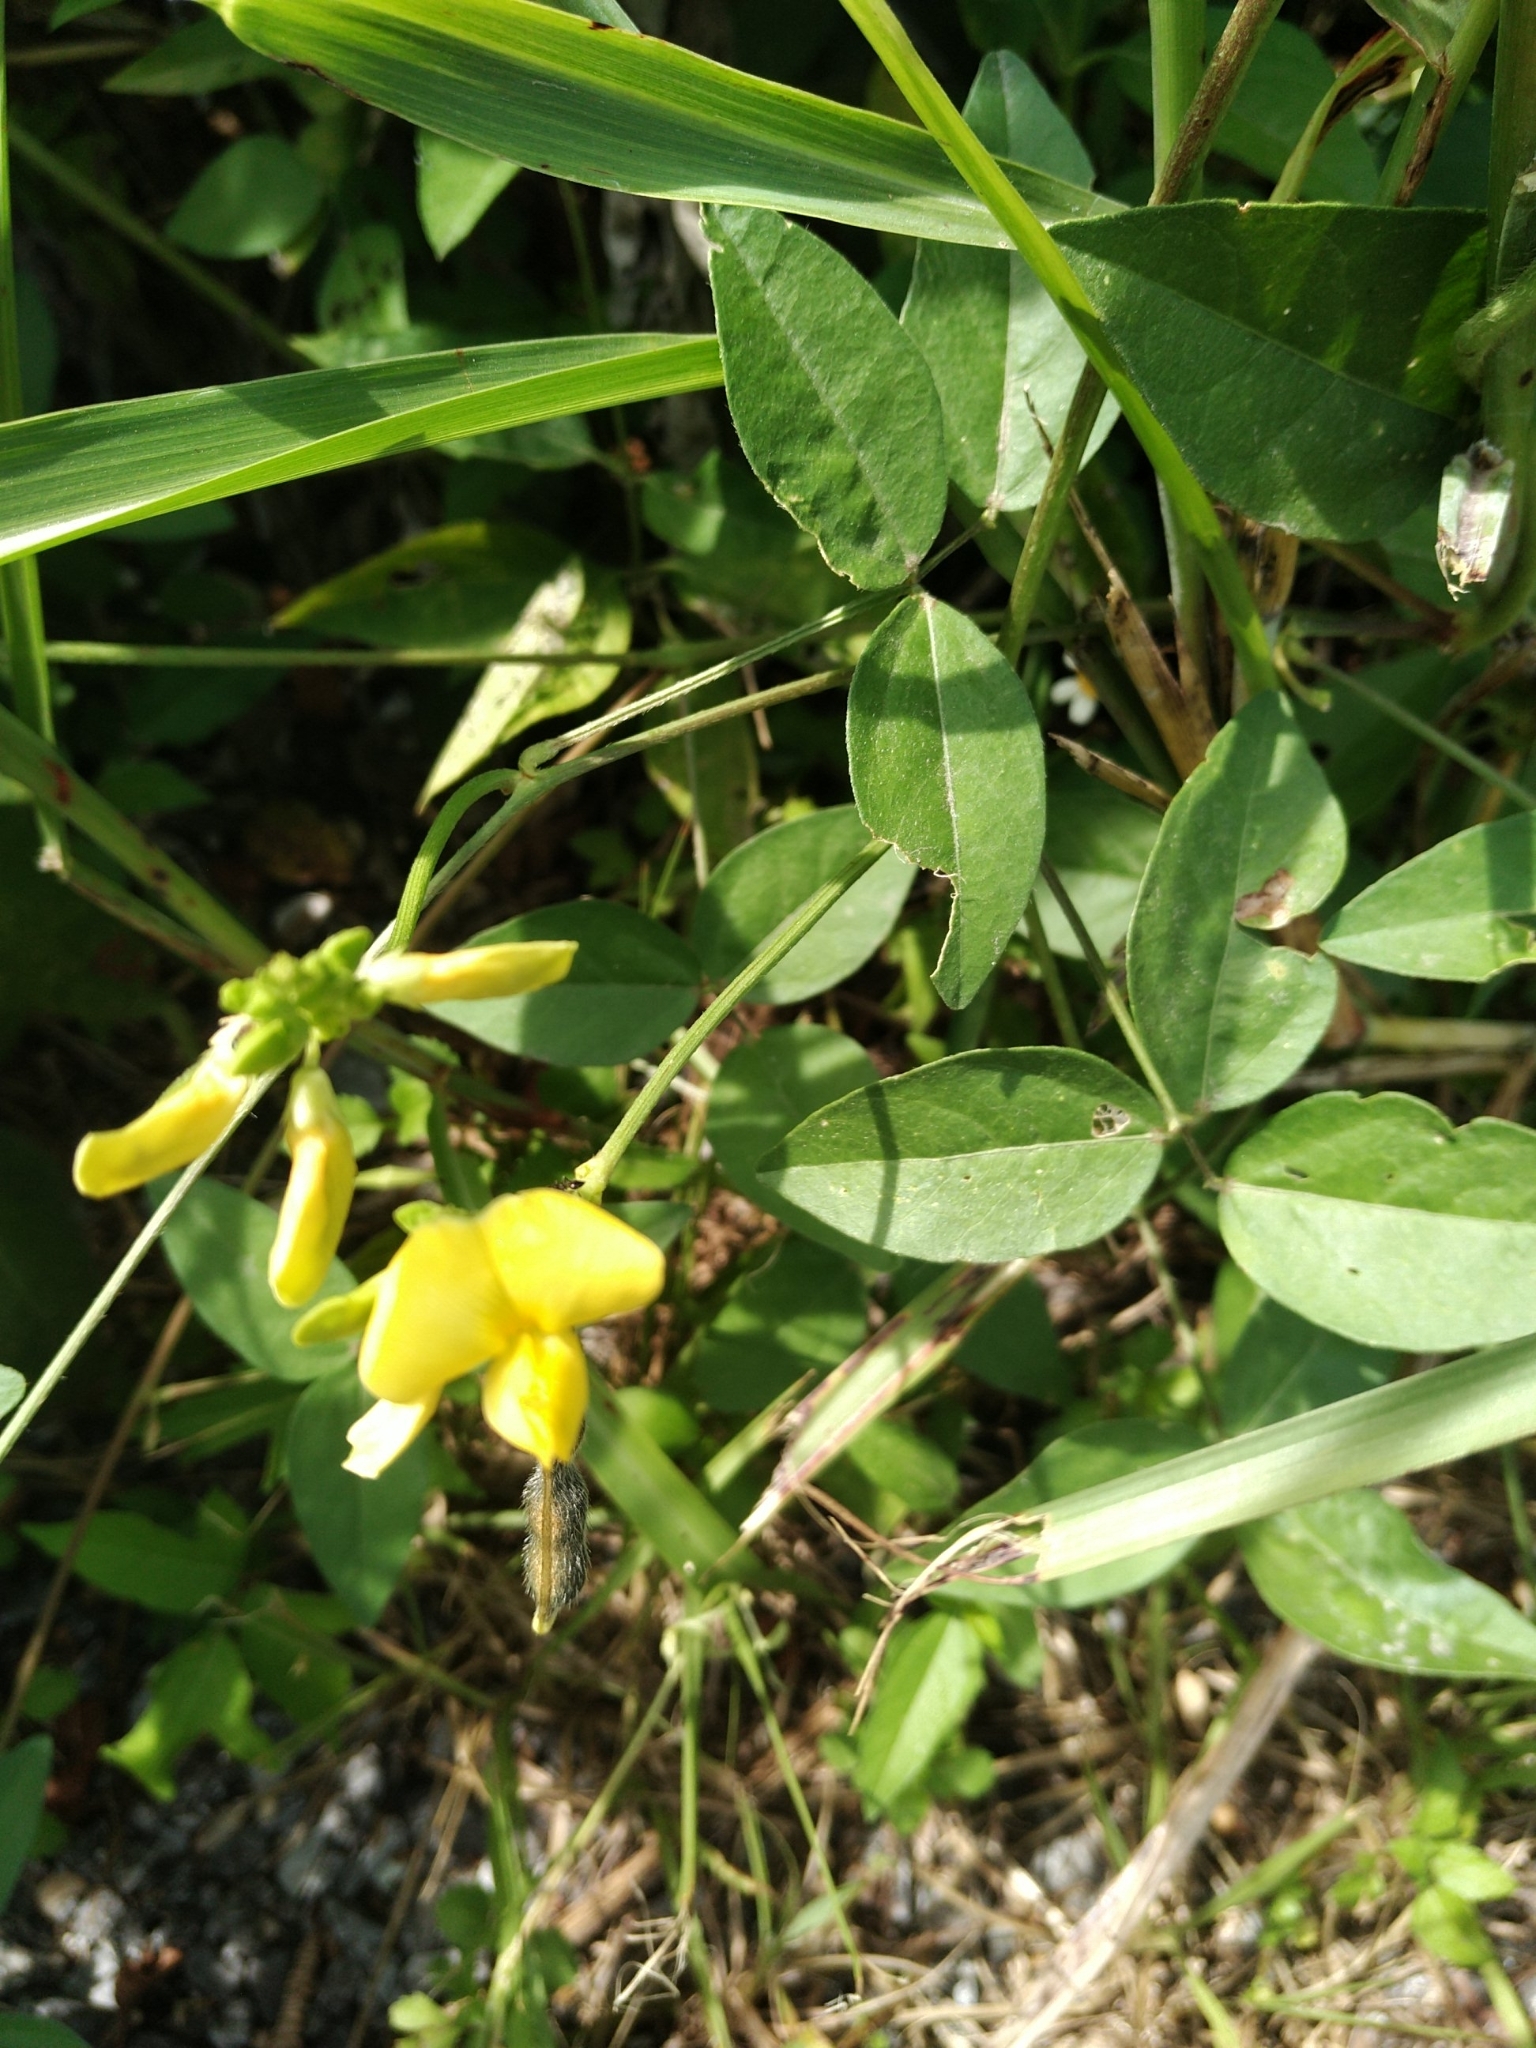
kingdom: Plantae
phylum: Tracheophyta
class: Magnoliopsida
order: Fabales
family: Fabaceae
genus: Vigna
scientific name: Vigna luteola
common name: Hairypod cowpea
